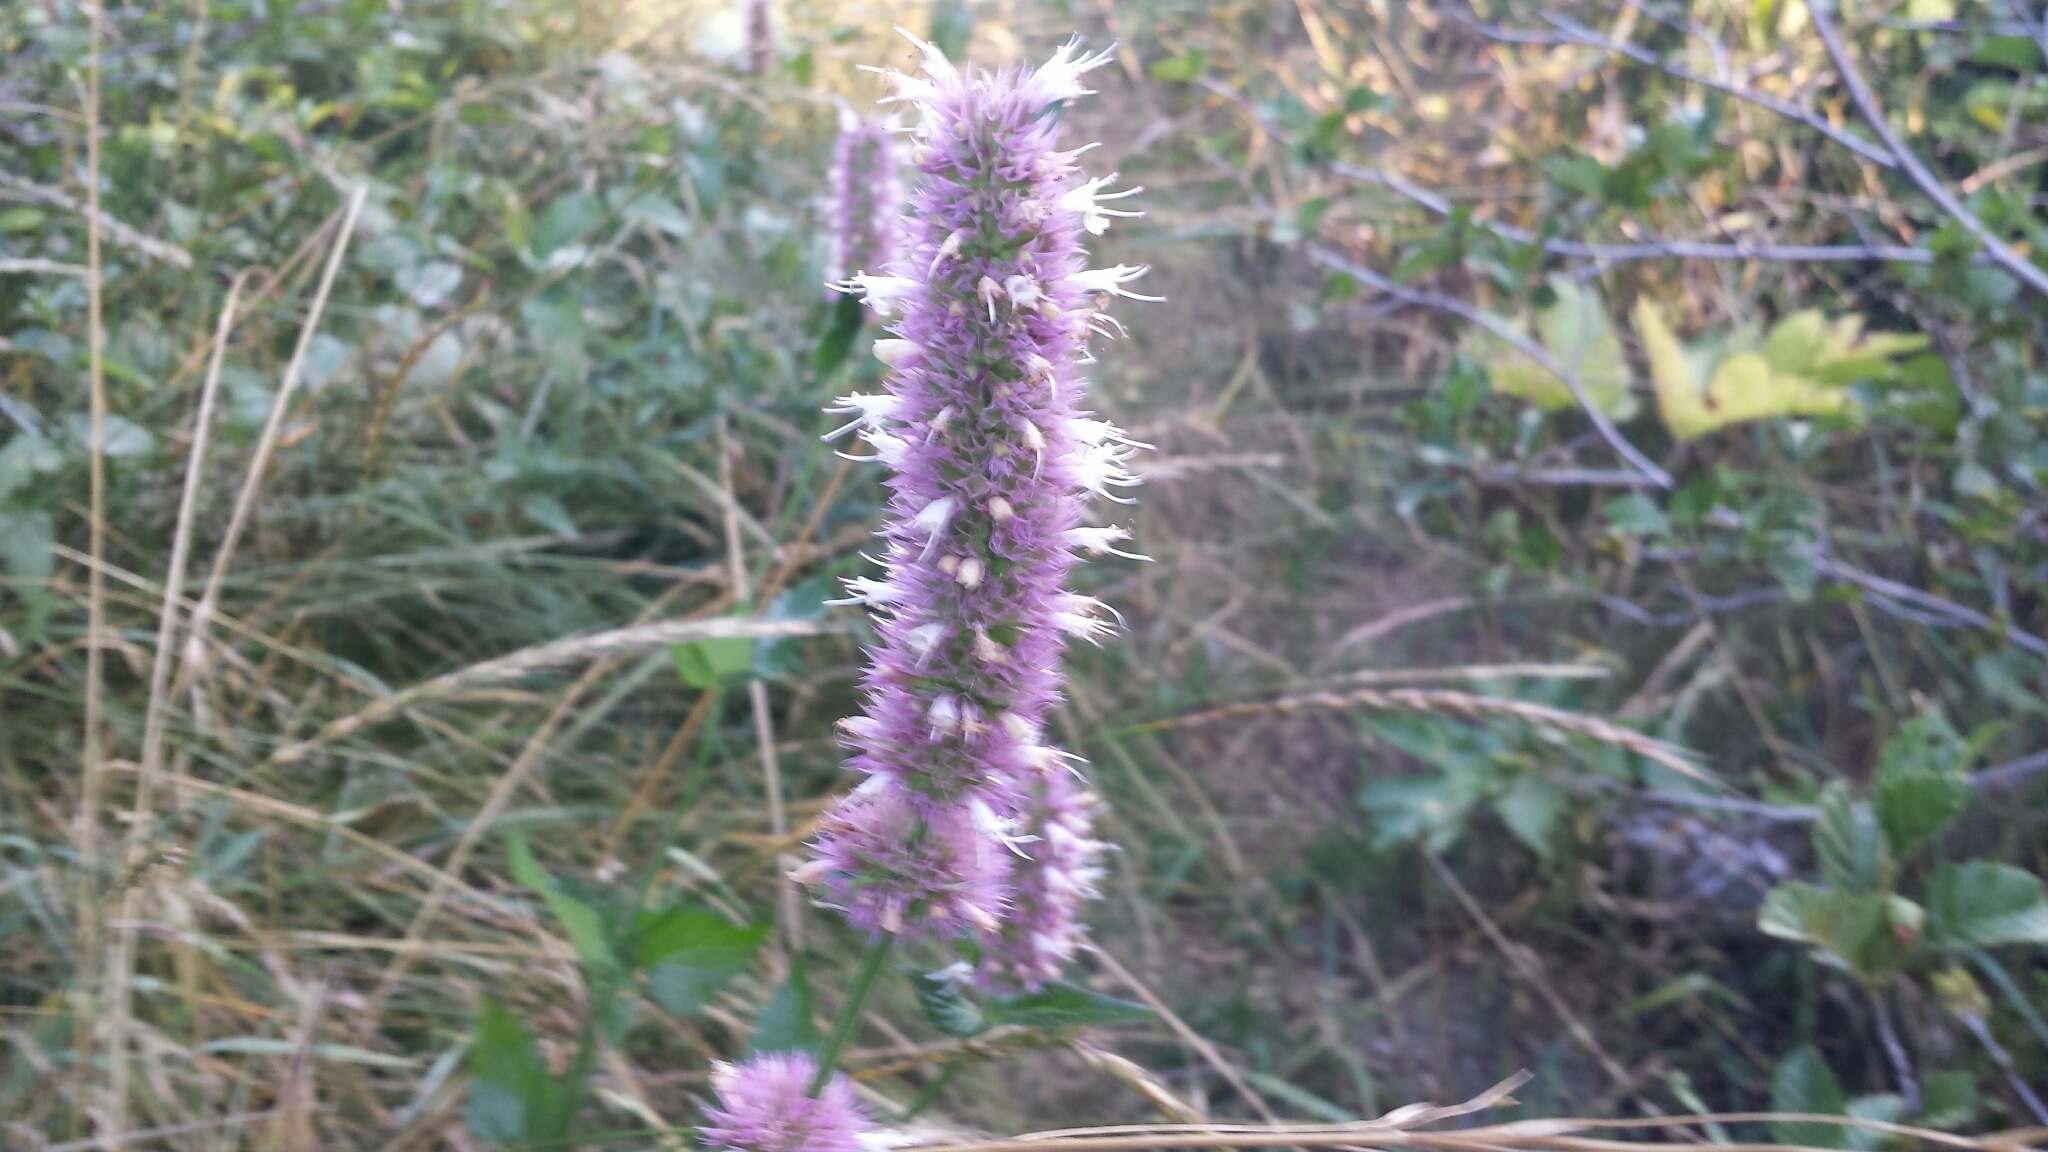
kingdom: Plantae
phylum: Tracheophyta
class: Magnoliopsida
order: Lamiales
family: Lamiaceae
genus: Agastache
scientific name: Agastache urticifolia
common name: Horsemint giant hyssop
